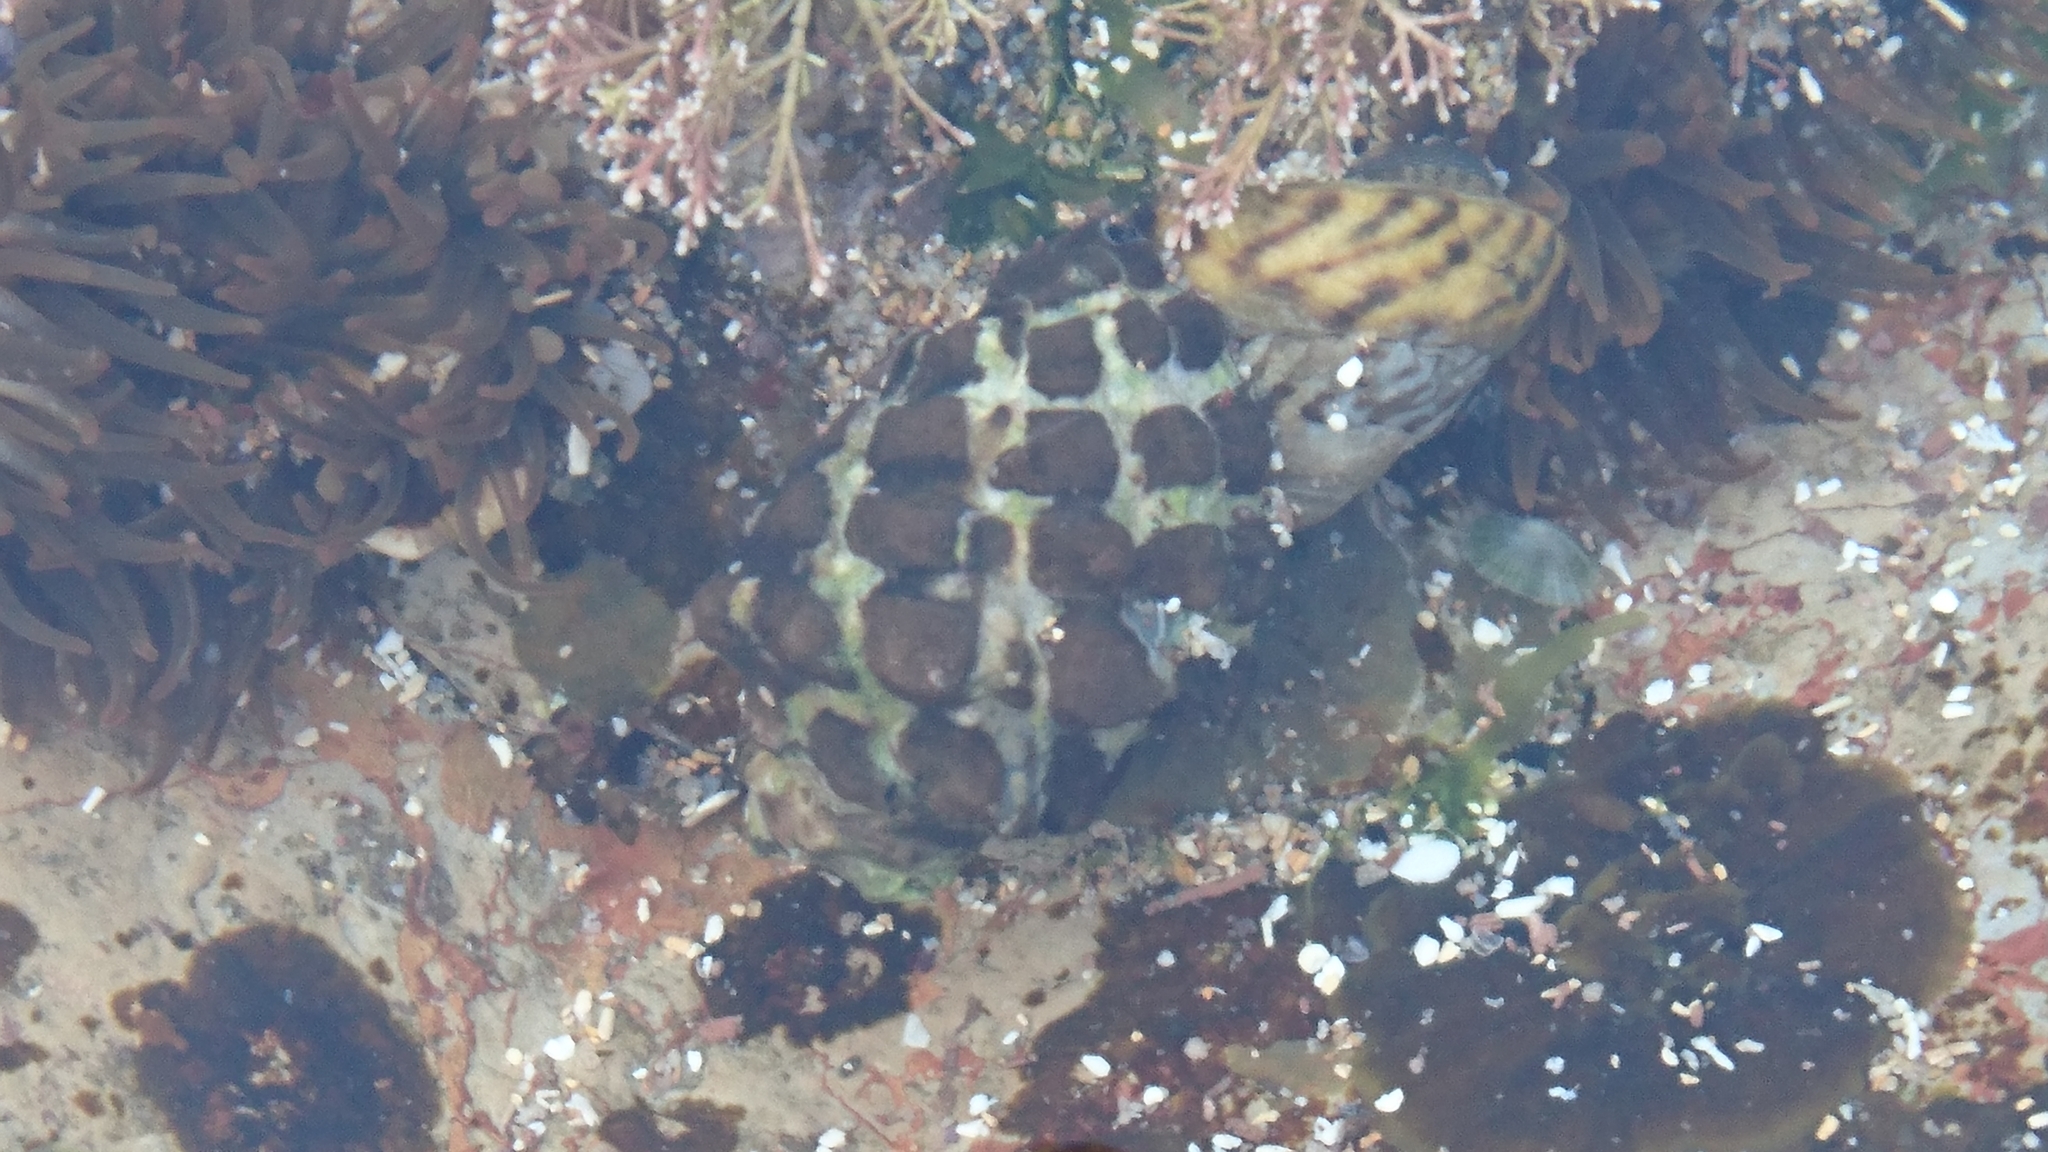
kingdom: Animalia
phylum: Mollusca
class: Gastropoda
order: Neogastropoda
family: Muricidae
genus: Tenguella
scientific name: Tenguella marginalba
